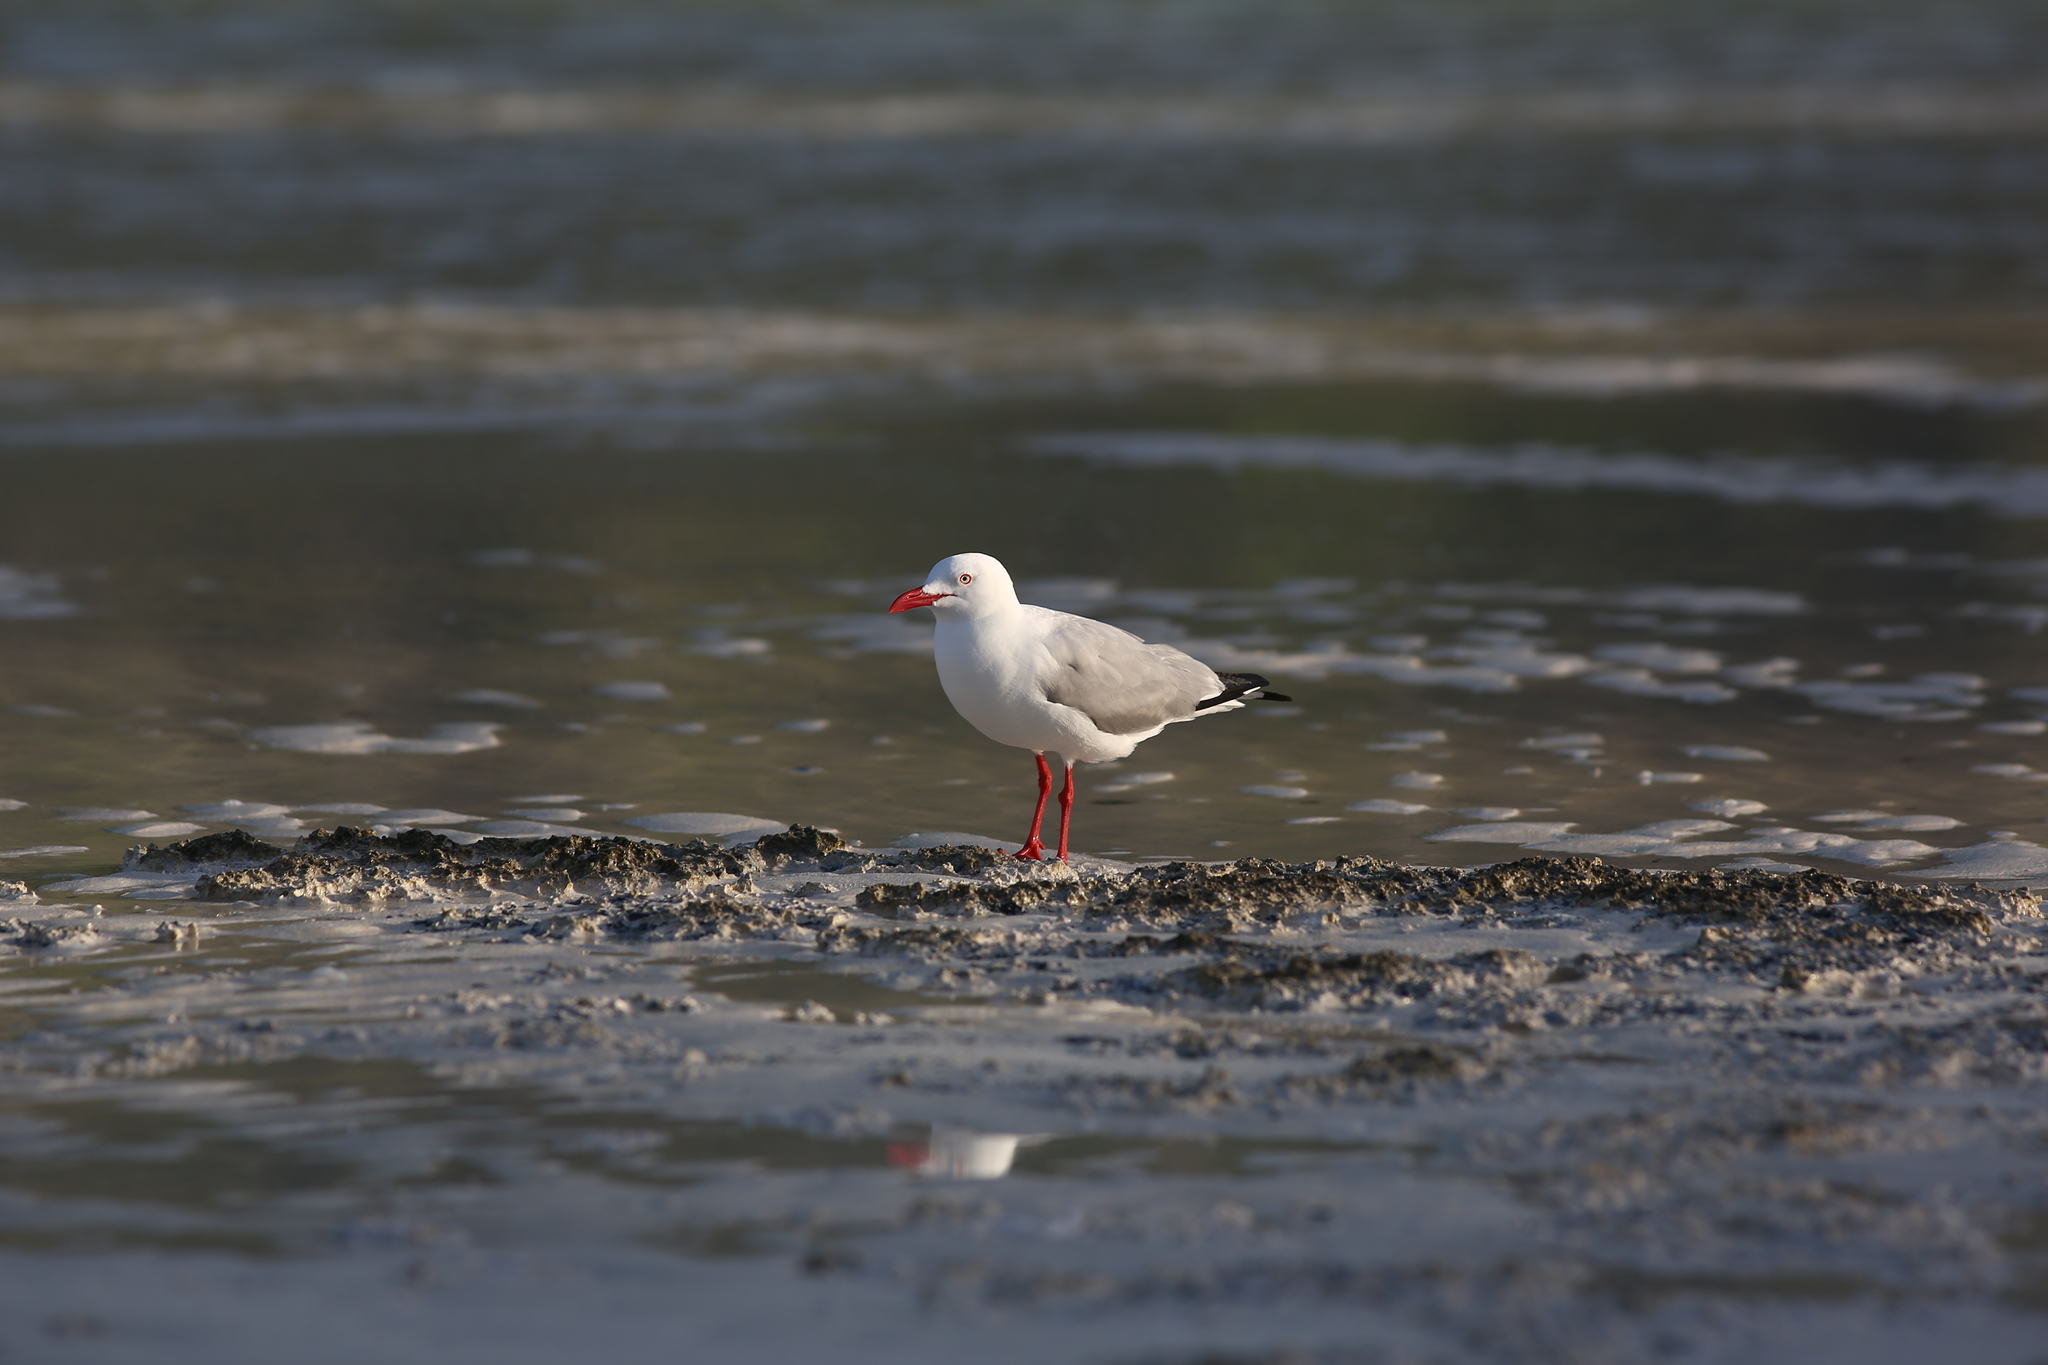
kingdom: Animalia
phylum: Chordata
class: Aves
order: Charadriiformes
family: Laridae
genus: Chroicocephalus
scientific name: Chroicocephalus novaehollandiae
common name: Silver gull
